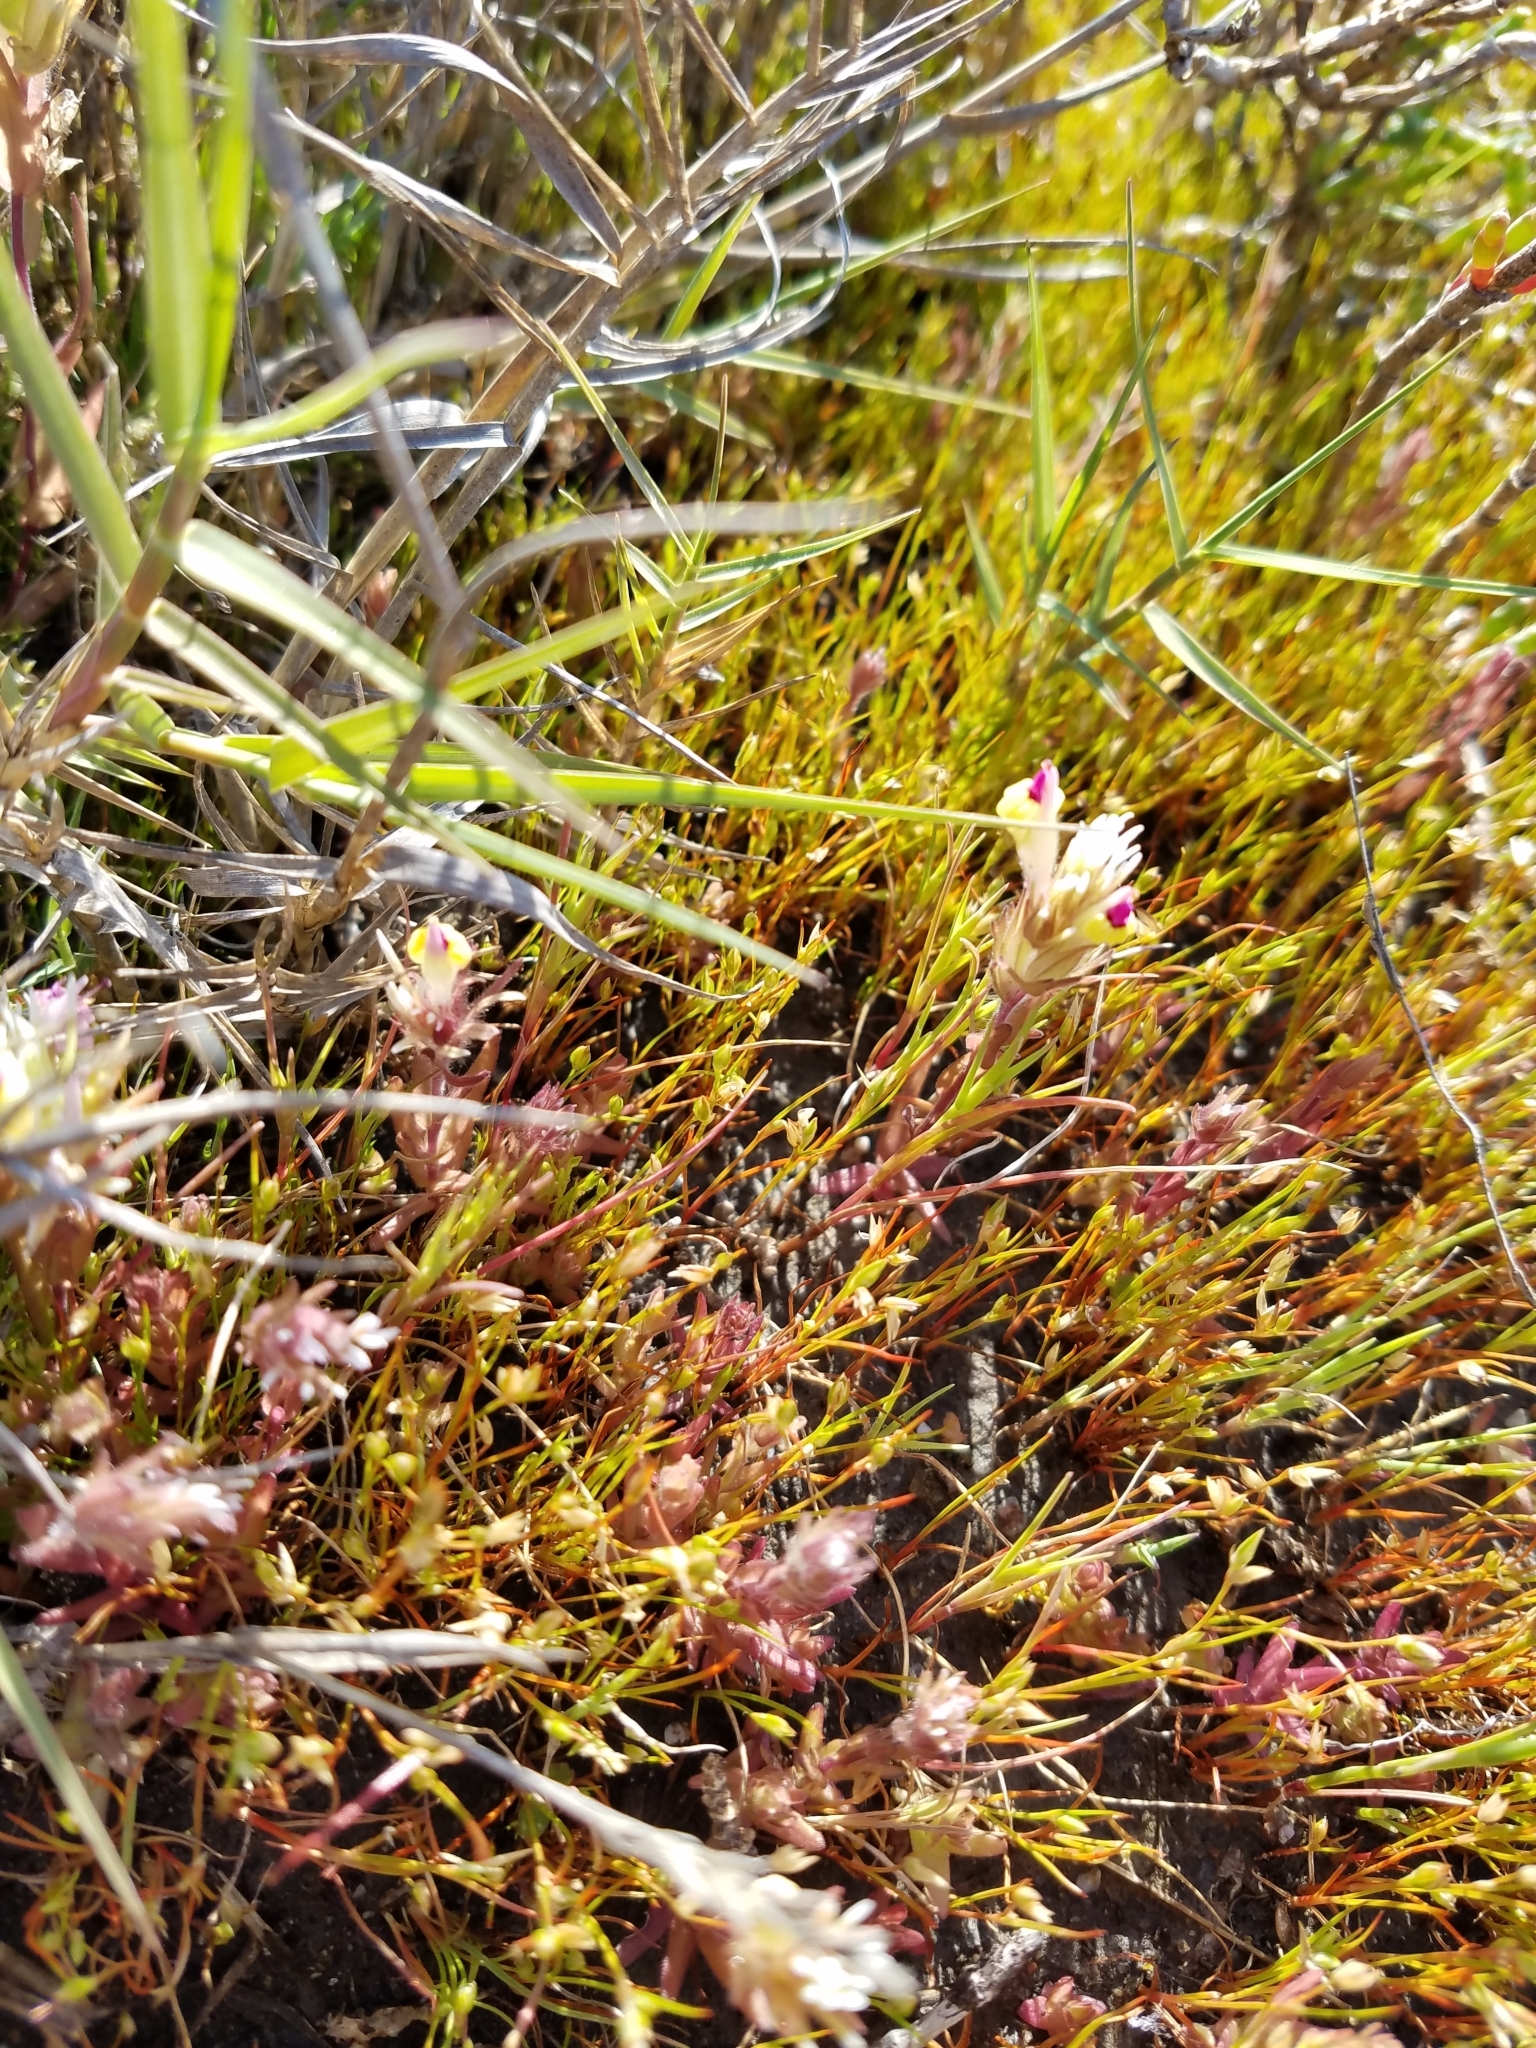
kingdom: Plantae
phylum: Tracheophyta
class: Magnoliopsida
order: Lamiales
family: Orobanchaceae
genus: Castilleja
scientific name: Castilleja ambigua
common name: Johnny-nip
